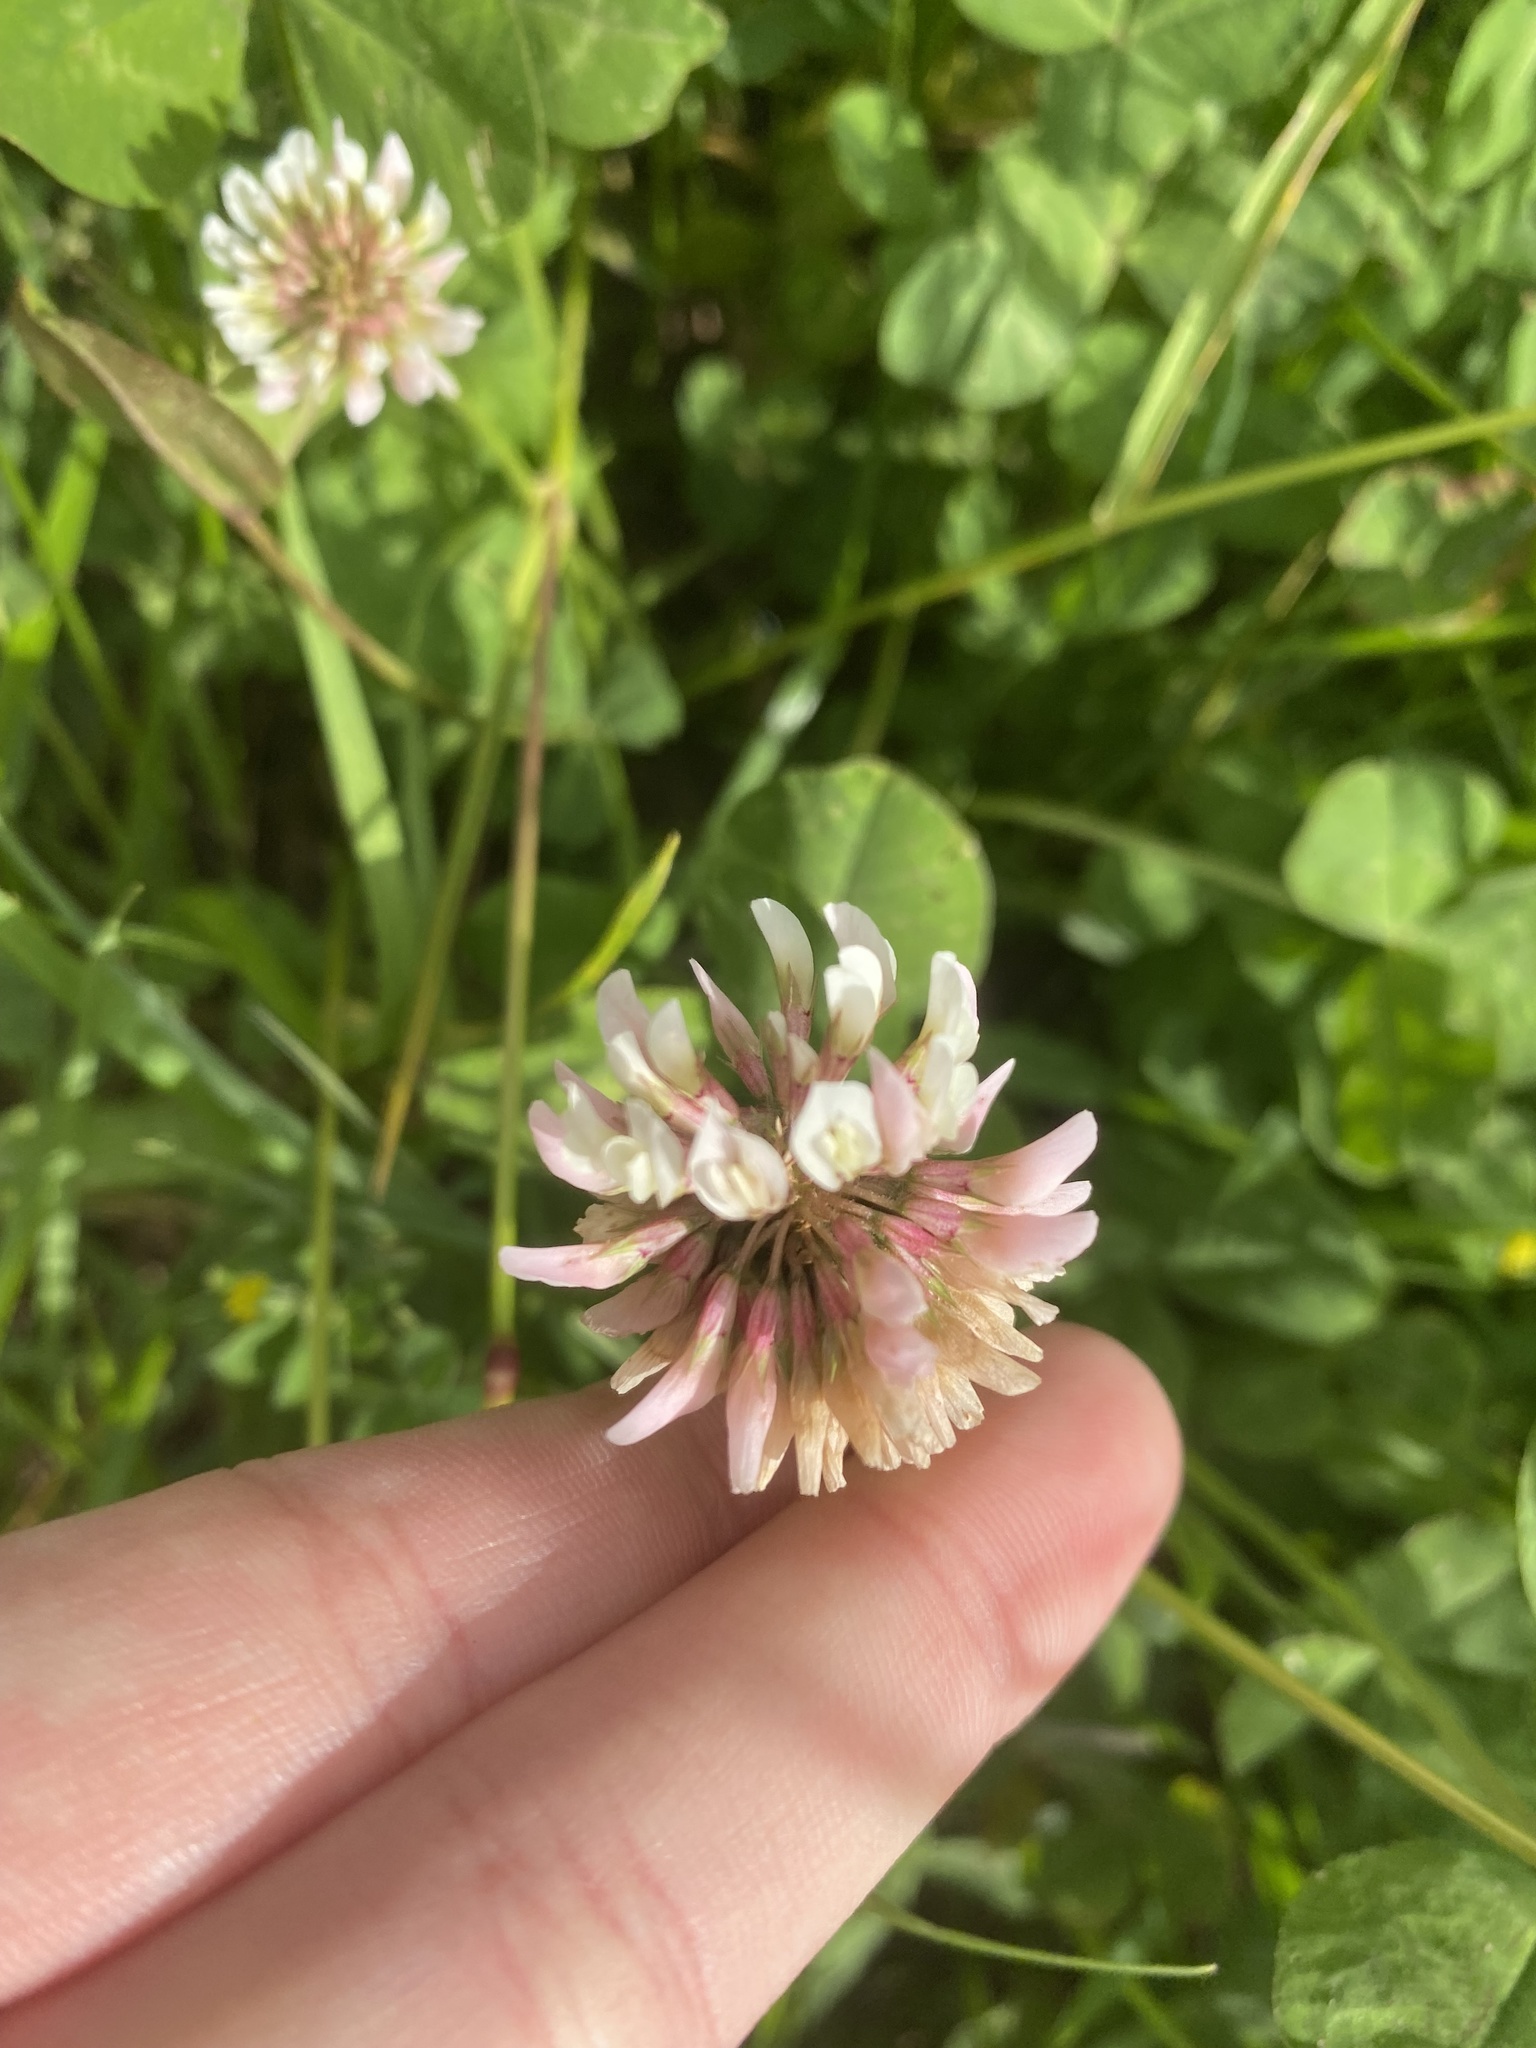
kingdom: Plantae
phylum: Tracheophyta
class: Magnoliopsida
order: Fabales
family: Fabaceae
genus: Trifolium
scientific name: Trifolium repens
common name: White clover
